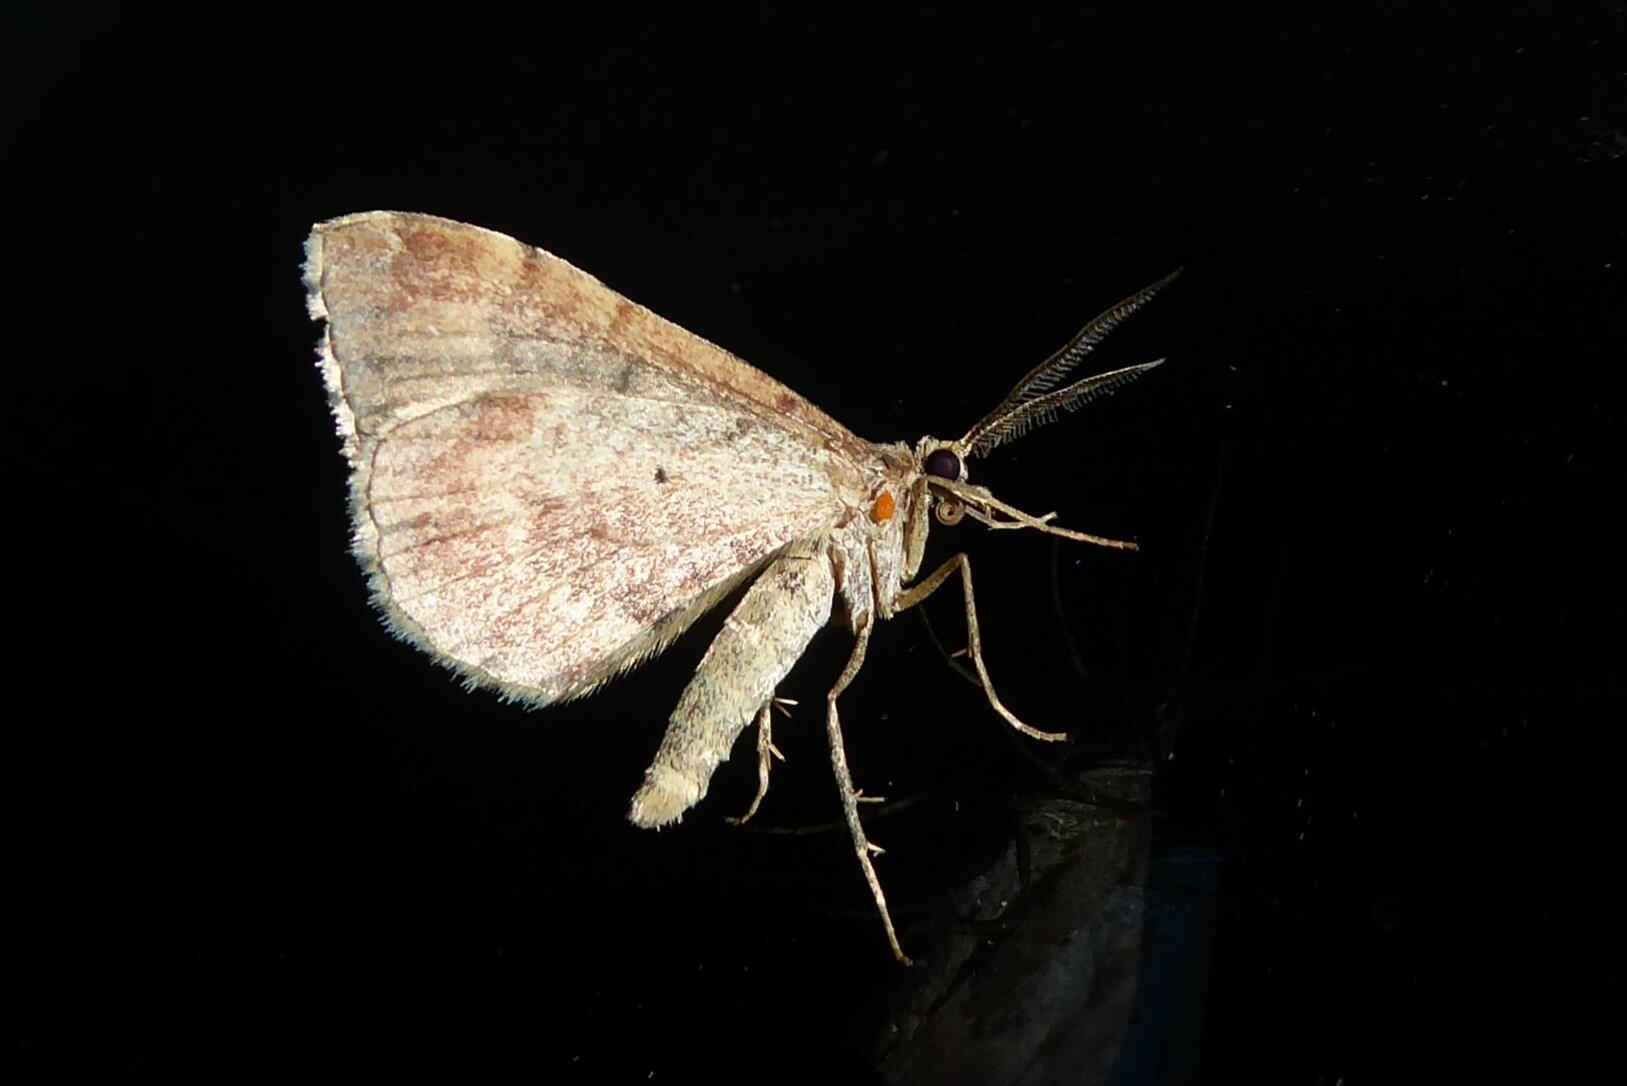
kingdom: Animalia
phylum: Arthropoda
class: Insecta
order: Lepidoptera
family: Geometridae
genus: Asaphodes
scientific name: Asaphodes aegrota
